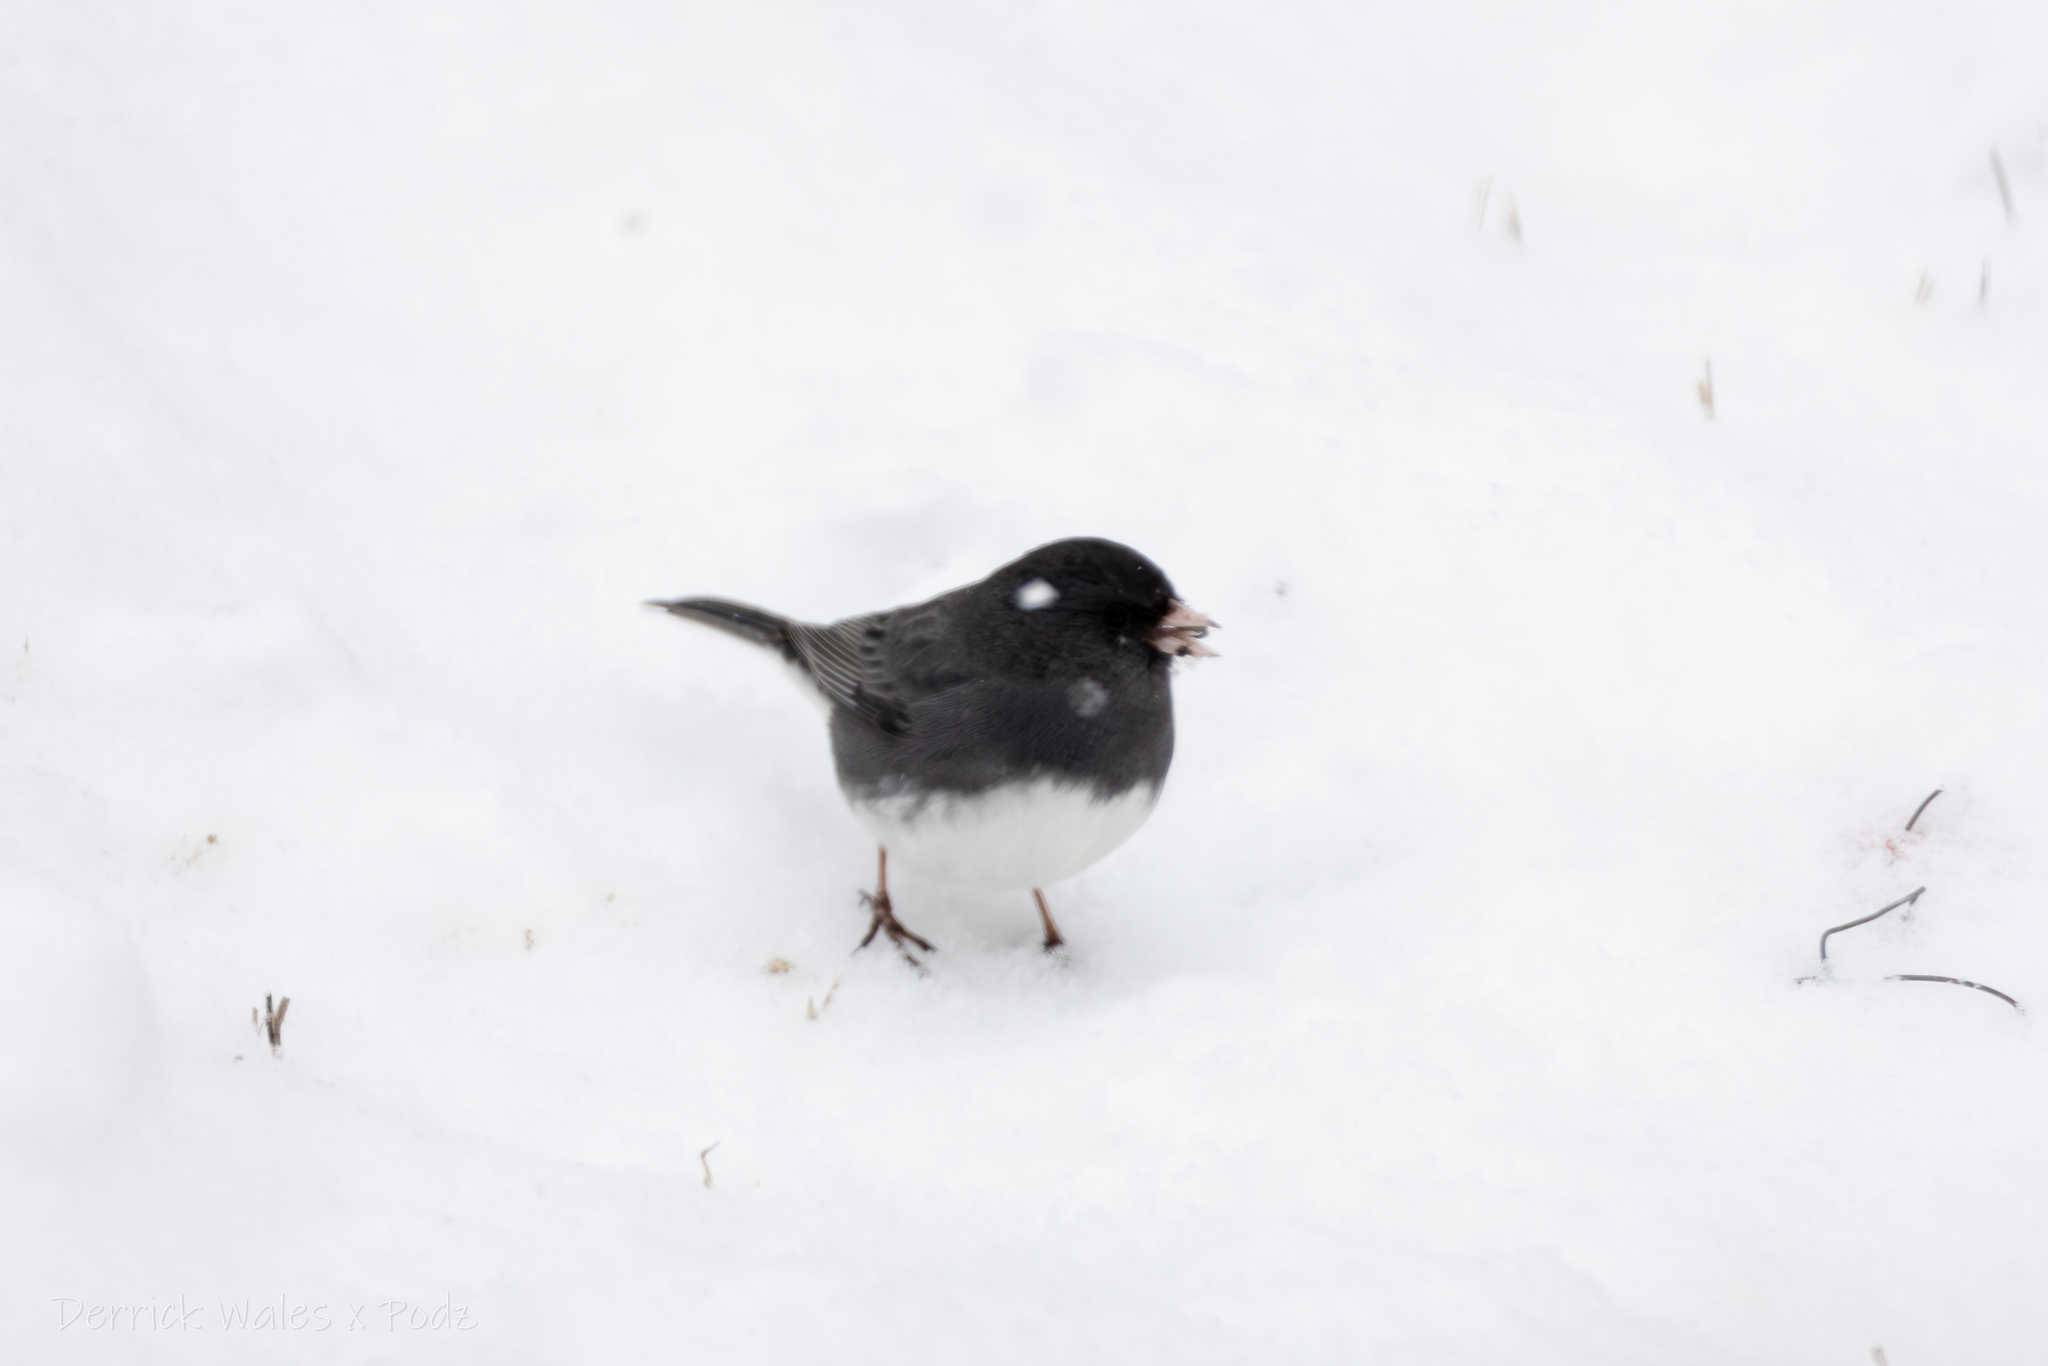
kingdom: Animalia
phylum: Chordata
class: Aves
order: Passeriformes
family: Passerellidae
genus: Junco
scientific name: Junco hyemalis
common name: Dark-eyed junco
